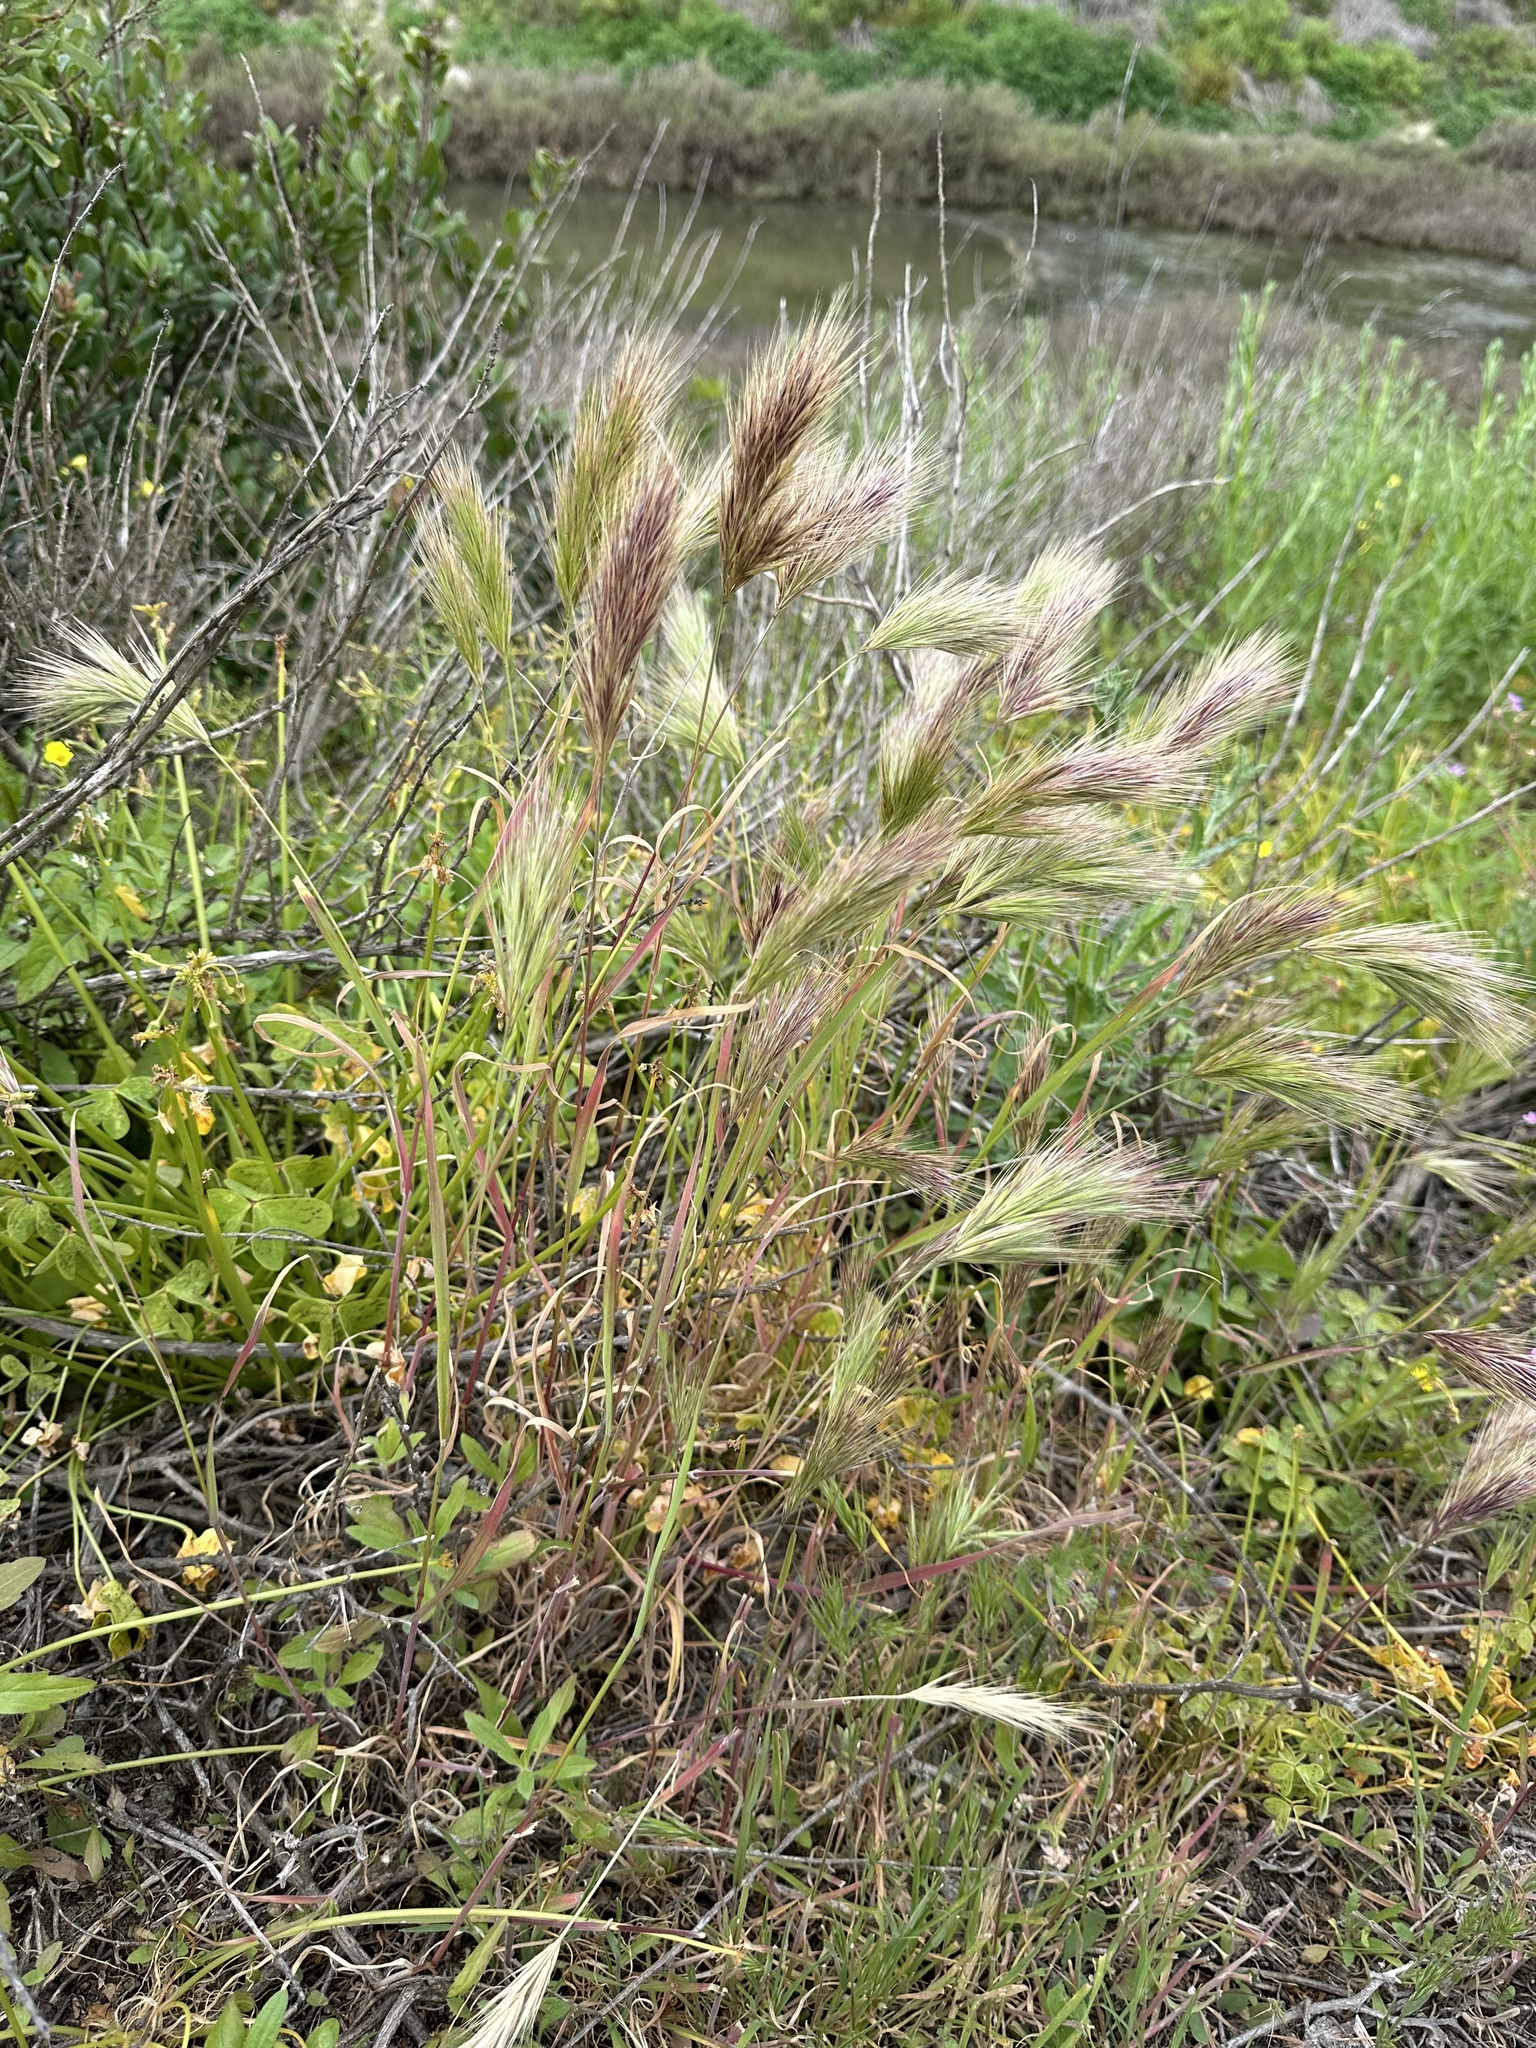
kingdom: Plantae
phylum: Tracheophyta
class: Liliopsida
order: Poales
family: Poaceae
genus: Bromus
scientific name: Bromus rubens
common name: Red brome
